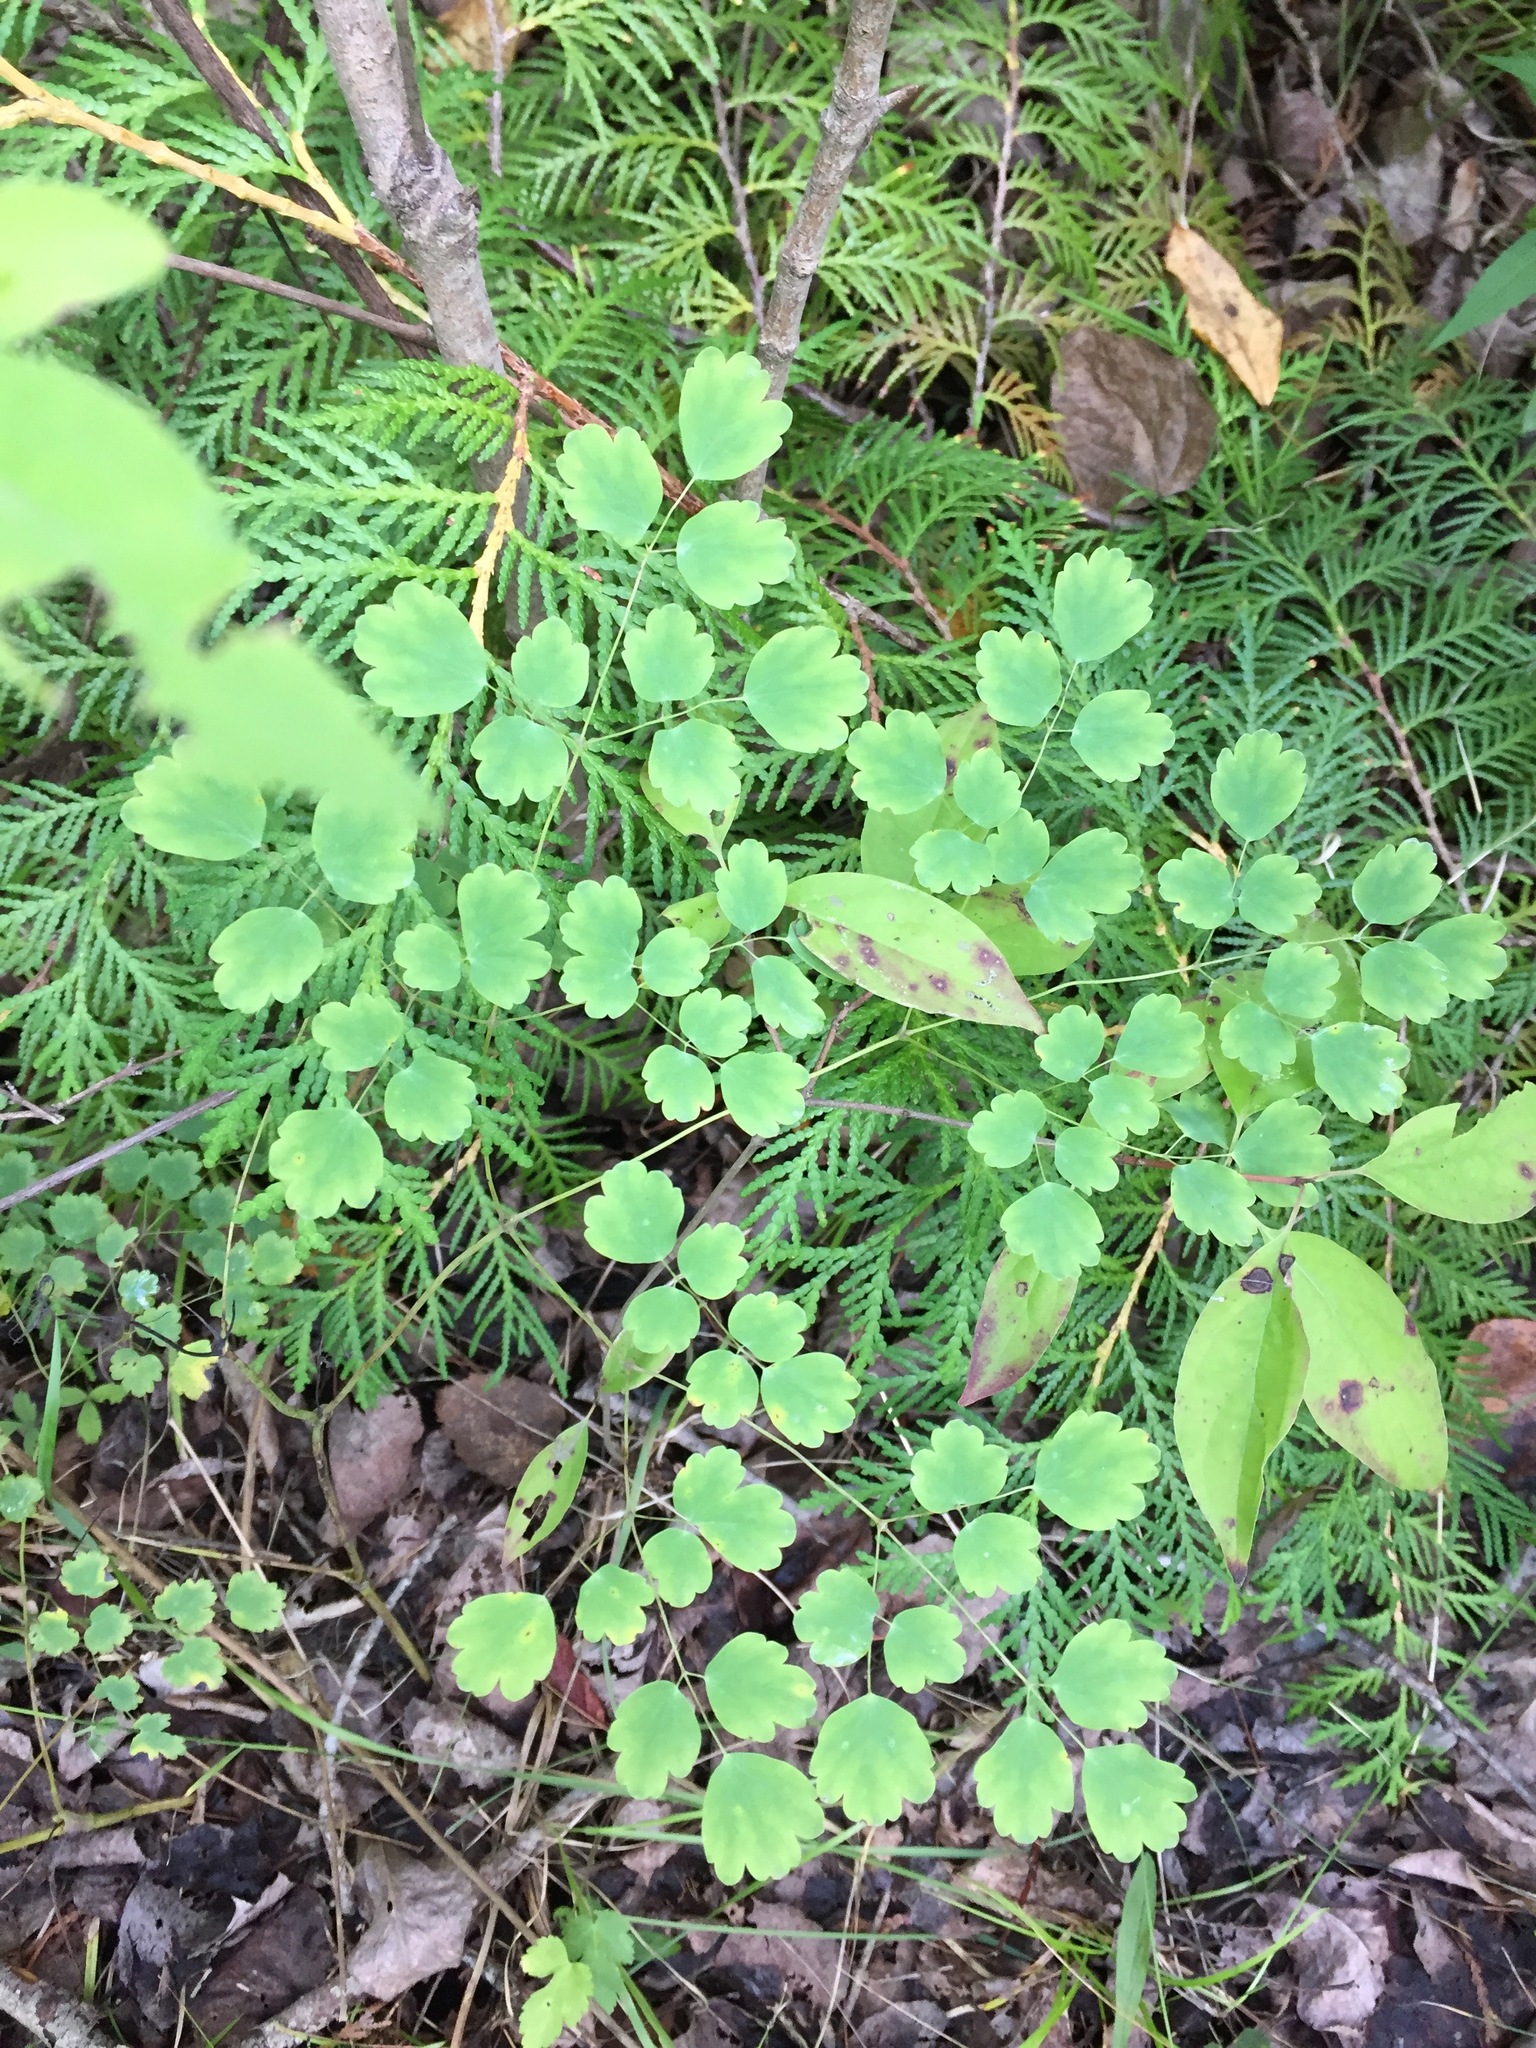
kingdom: Plantae
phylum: Tracheophyta
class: Magnoliopsida
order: Ranunculales
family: Ranunculaceae
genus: Thalictrum
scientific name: Thalictrum dioicum
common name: Early meadow-rue
